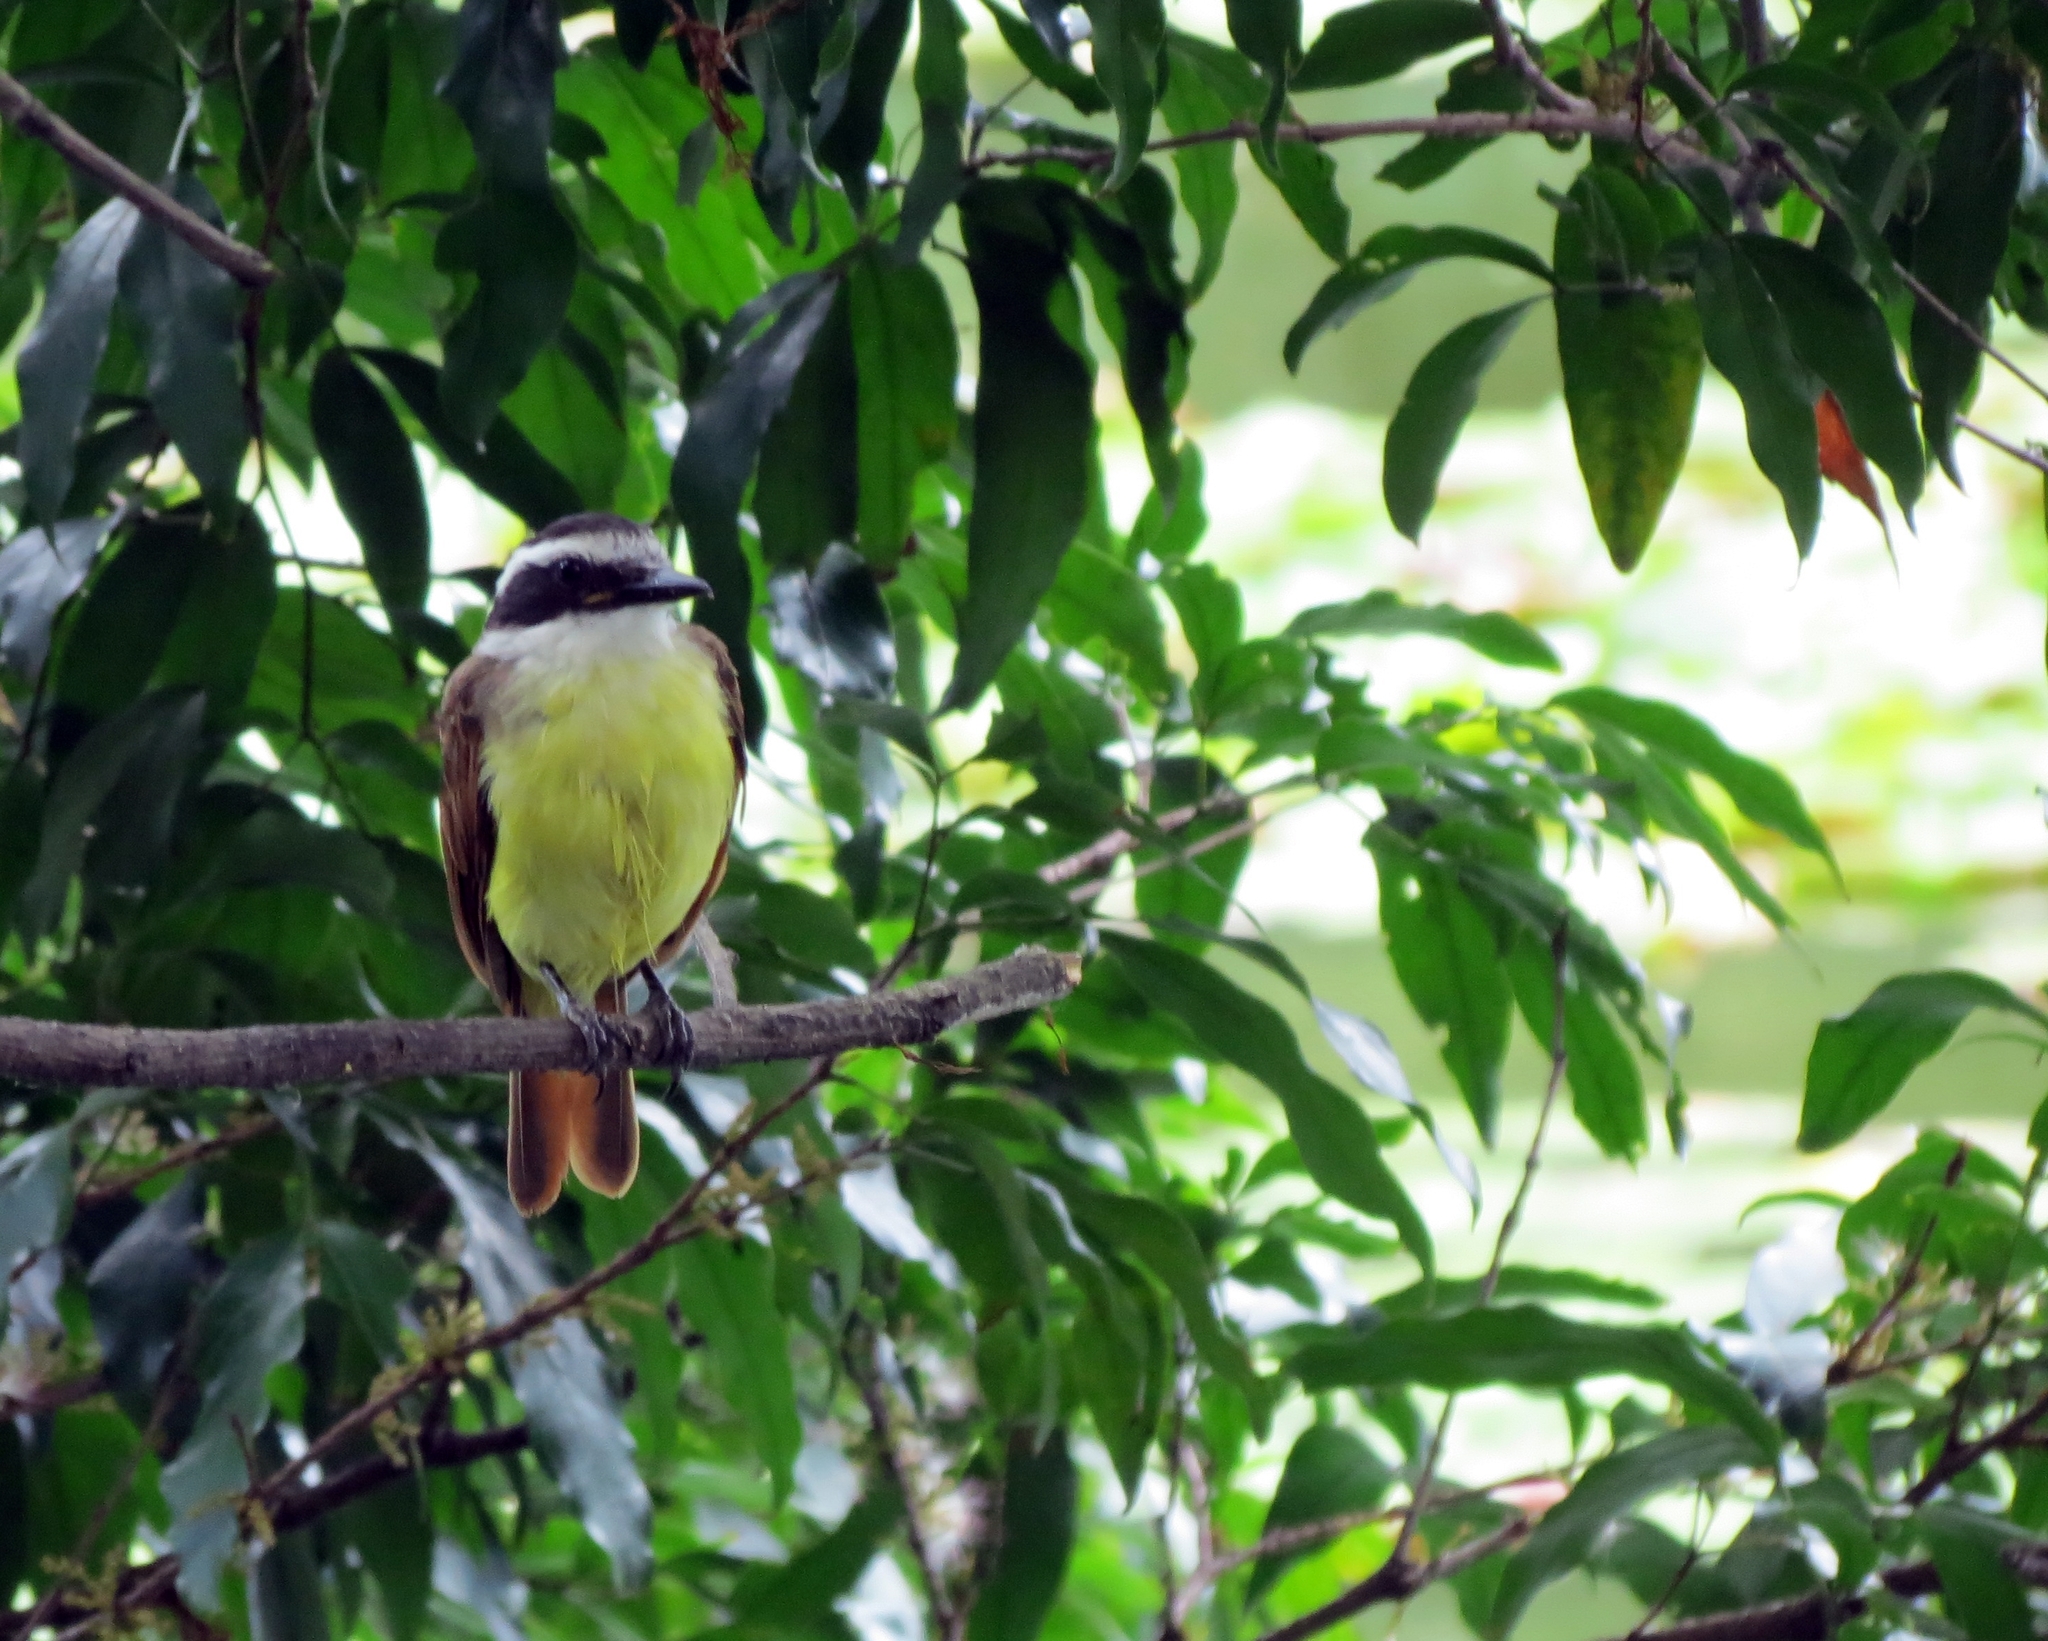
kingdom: Animalia
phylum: Chordata
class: Aves
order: Passeriformes
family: Tyrannidae
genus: Pitangus
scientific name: Pitangus sulphuratus
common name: Great kiskadee
